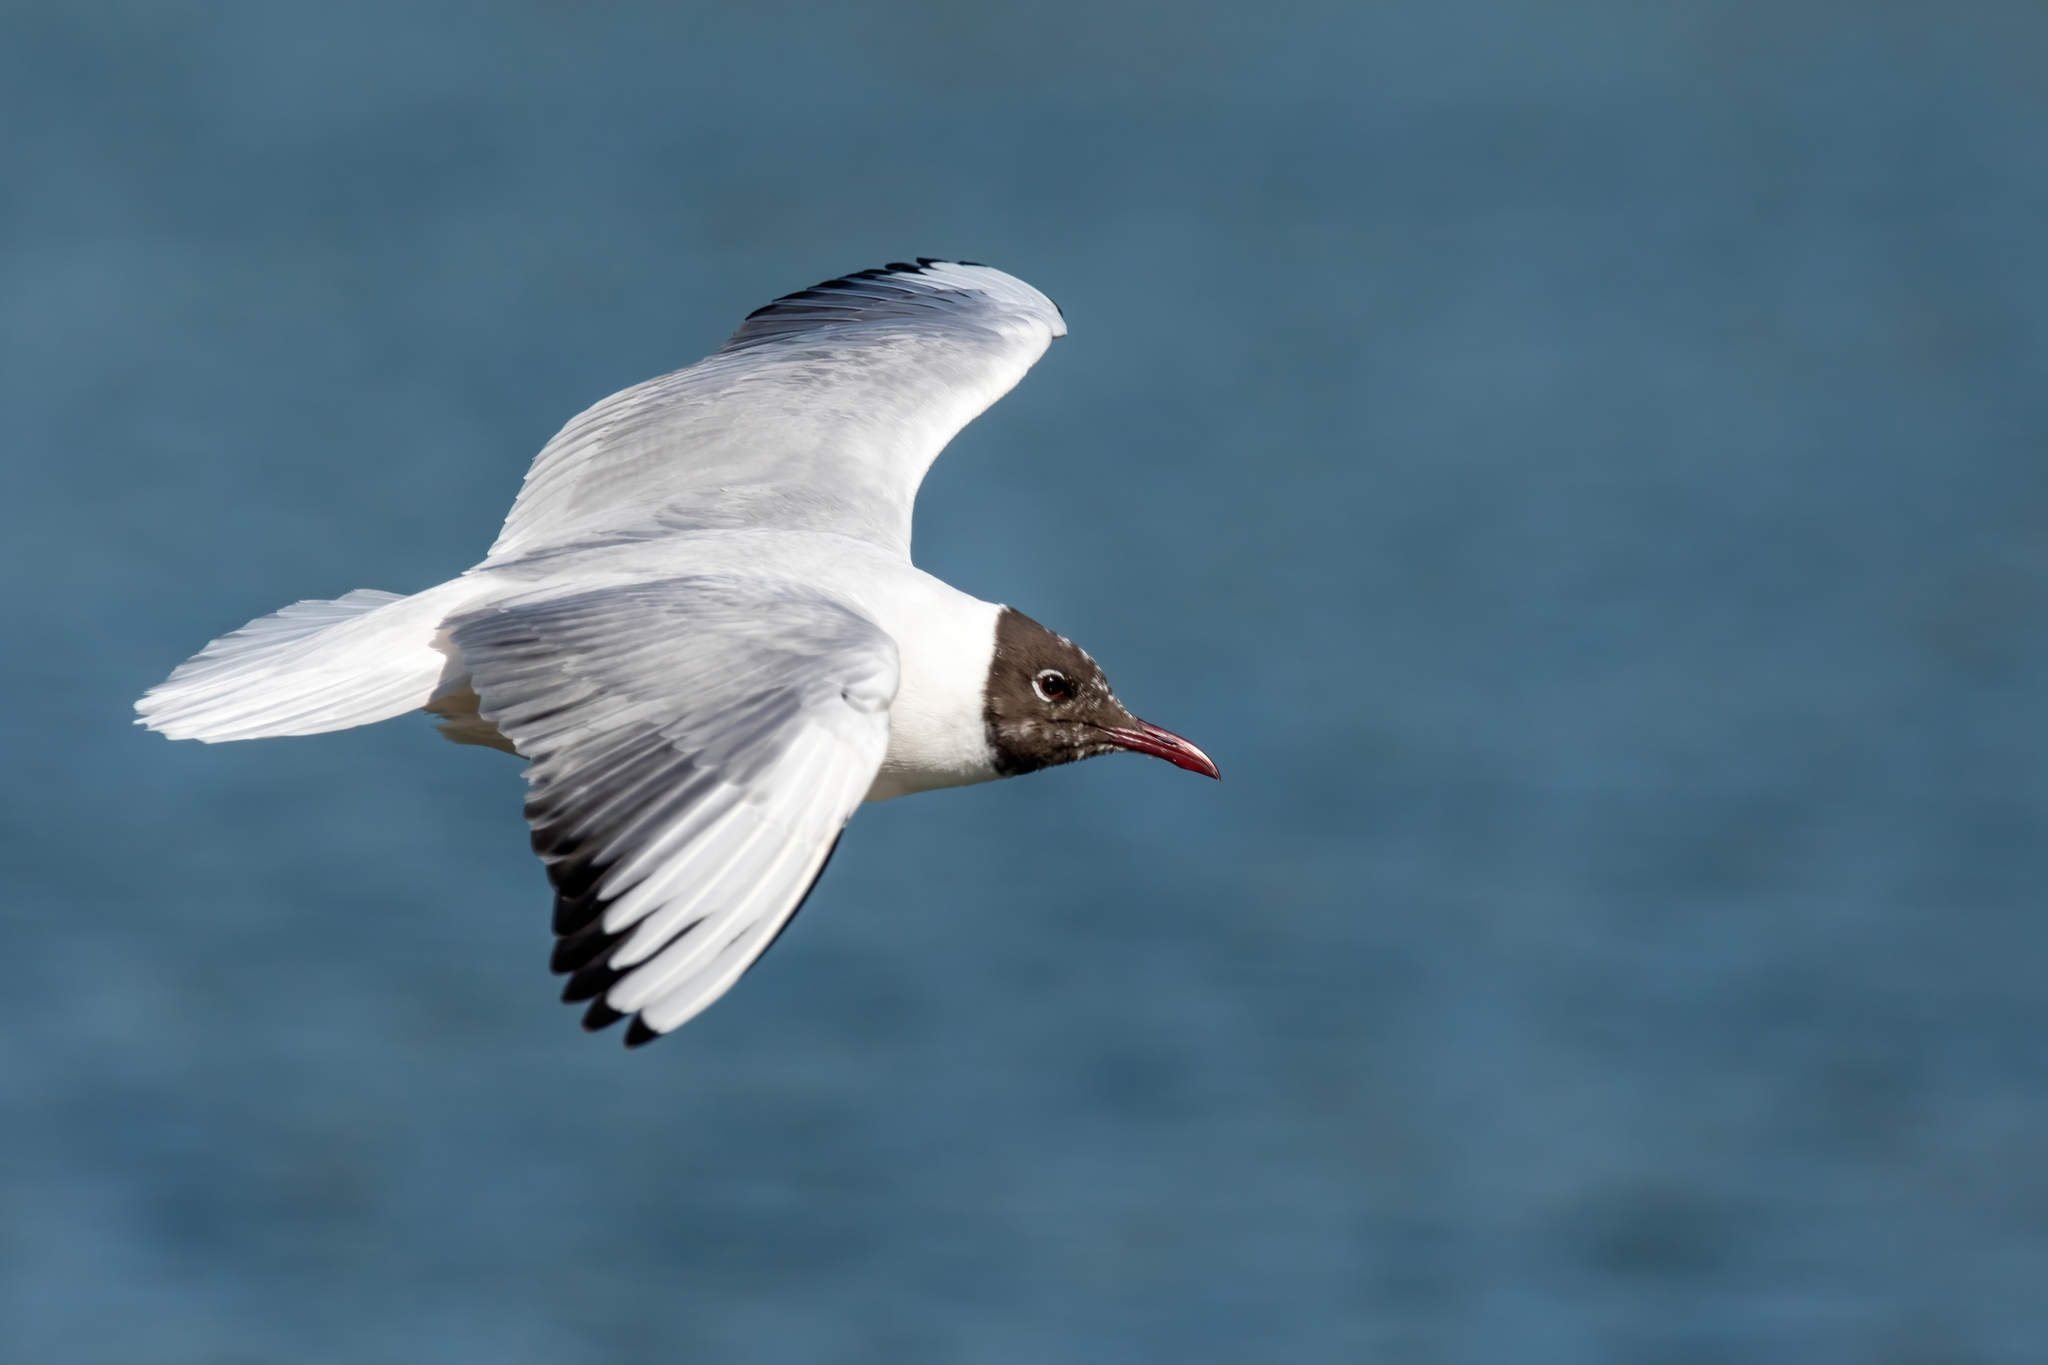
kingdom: Animalia
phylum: Chordata
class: Aves
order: Charadriiformes
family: Laridae
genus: Chroicocephalus
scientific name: Chroicocephalus ridibundus
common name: Black-headed gull
